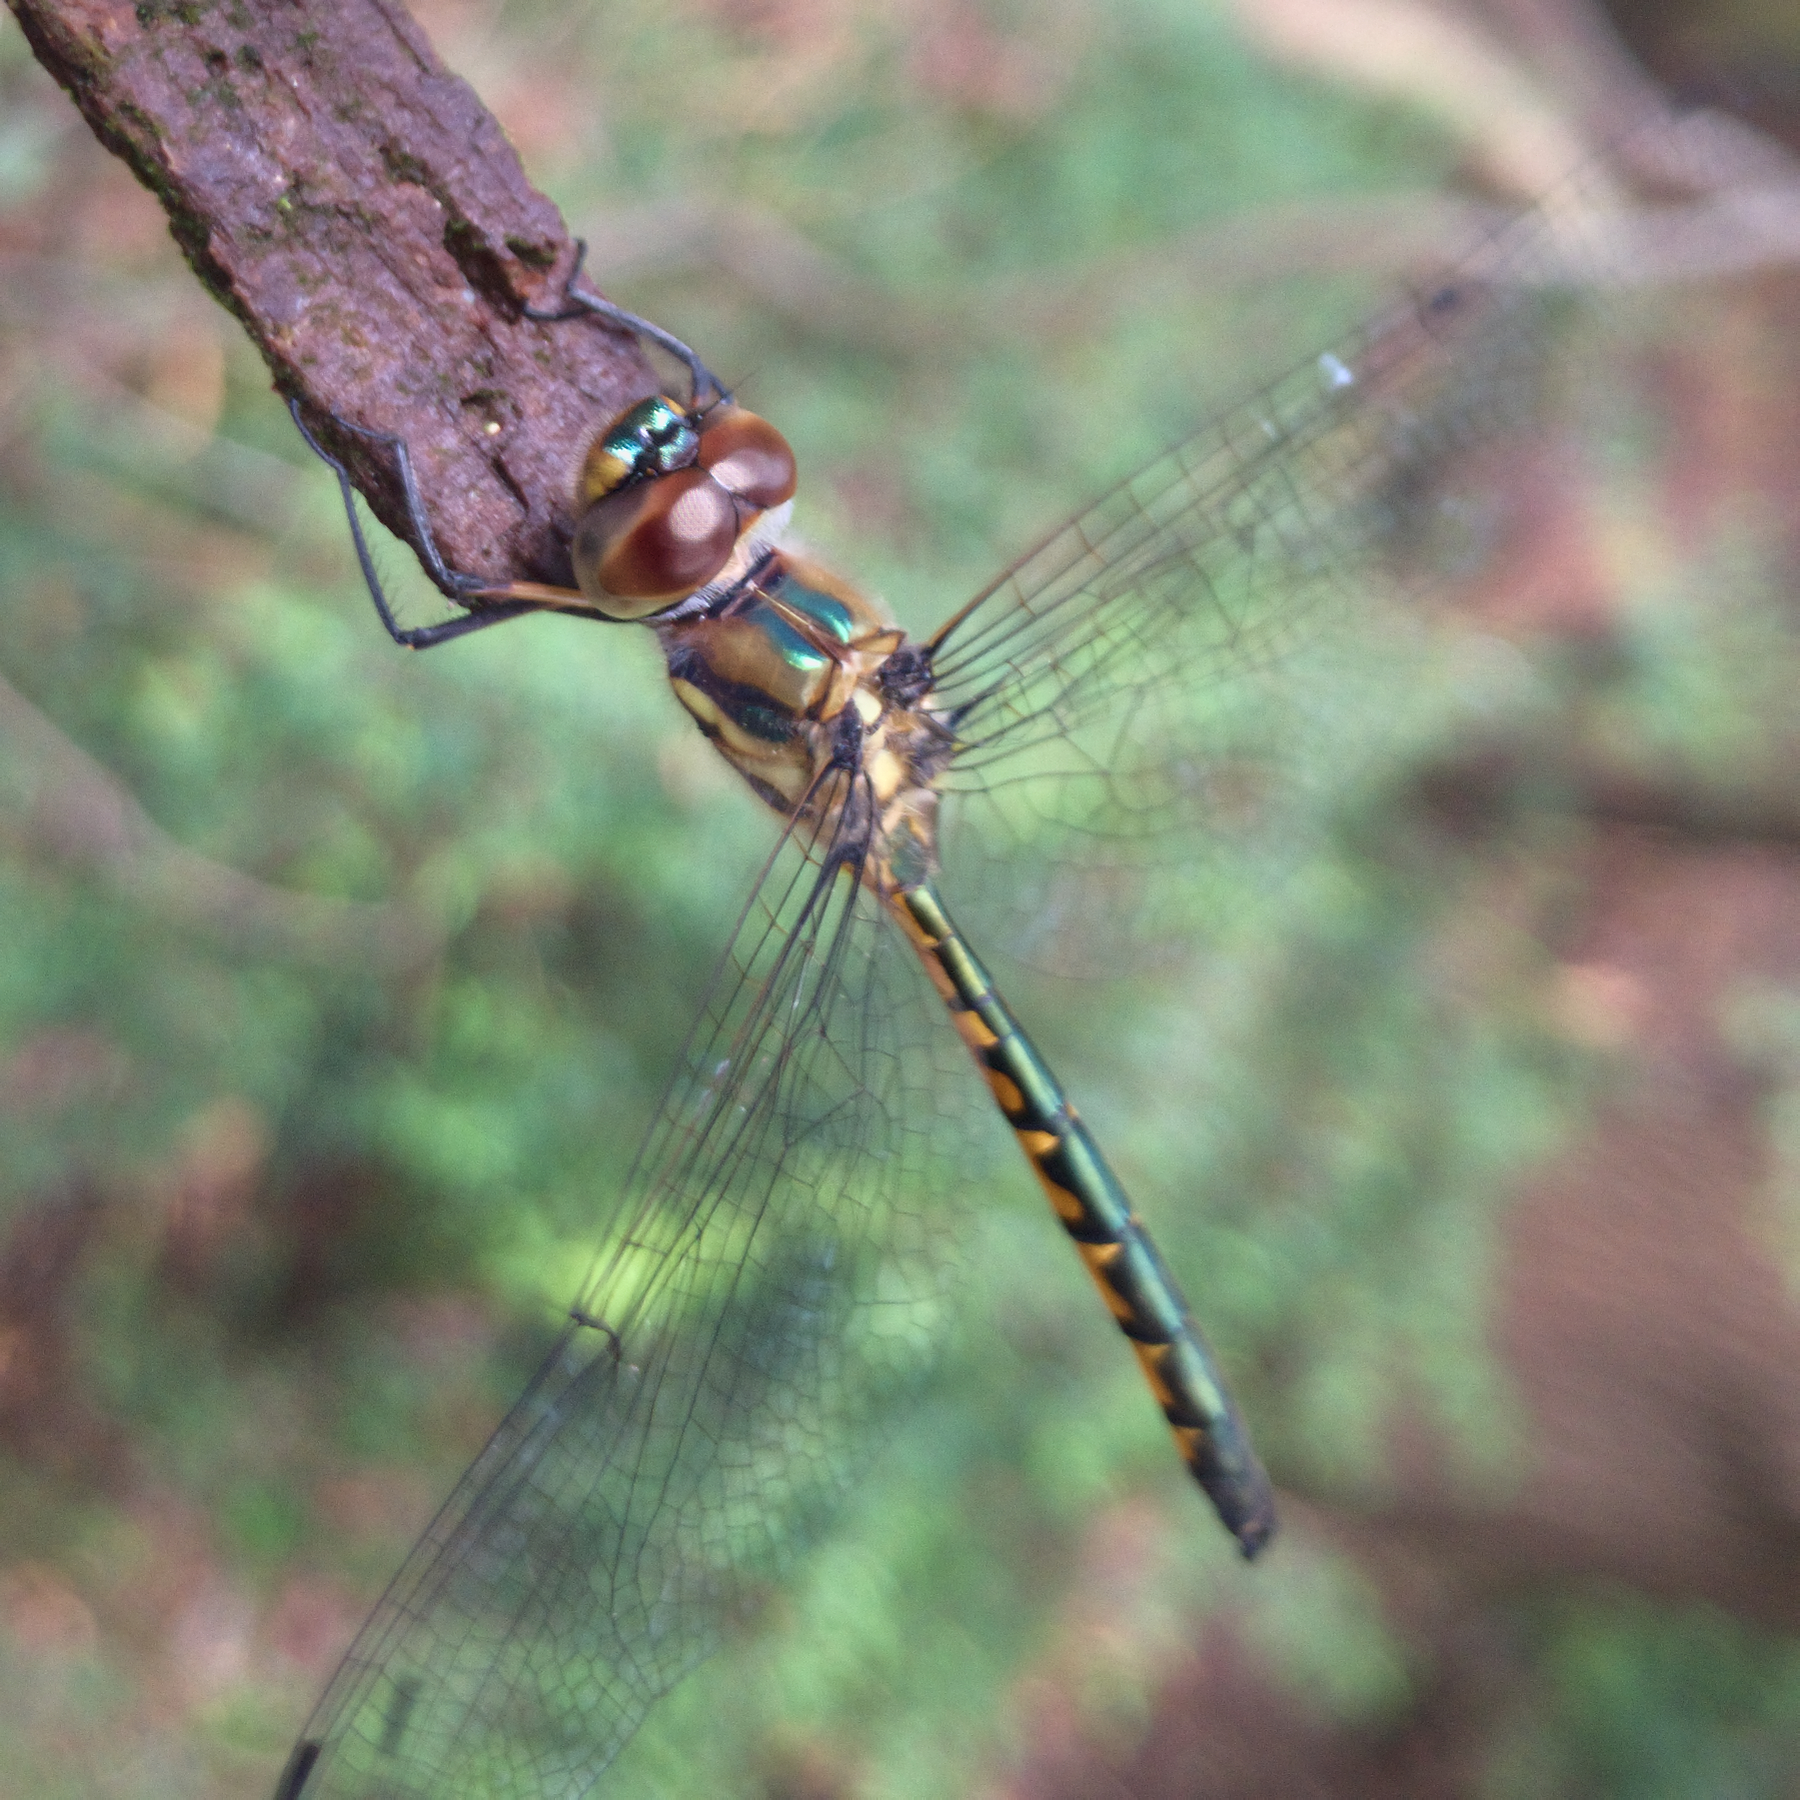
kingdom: Animalia
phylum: Arthropoda
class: Insecta
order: Odonata
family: Corduliidae
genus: Hemicordulia
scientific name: Hemicordulia australiae
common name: Sentry dragonfly
